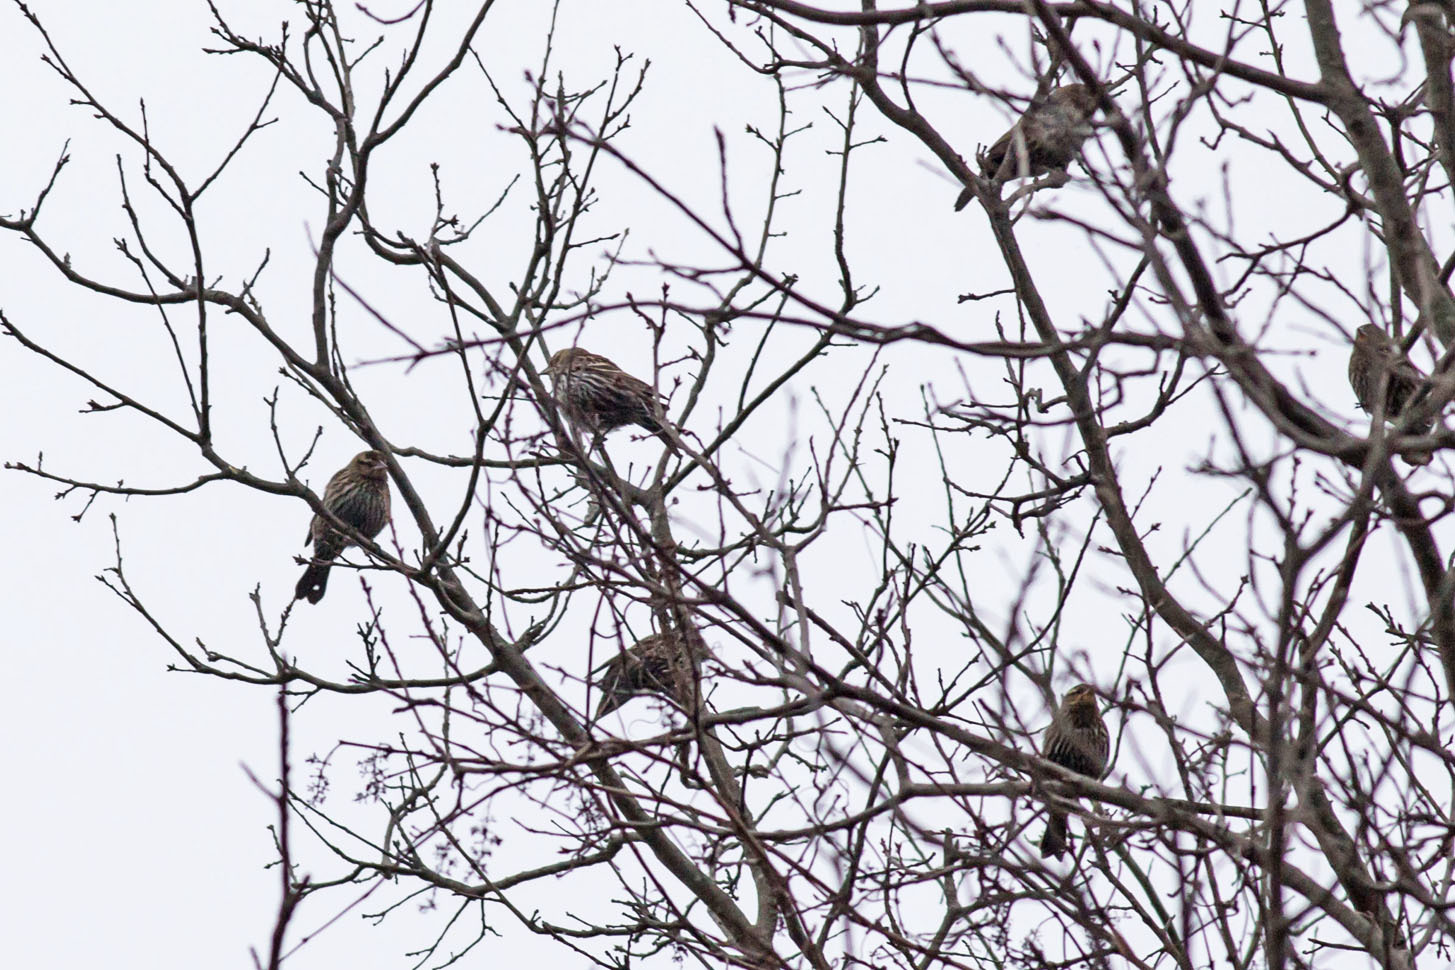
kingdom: Animalia
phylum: Chordata
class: Aves
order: Passeriformes
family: Icteridae
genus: Agelaius
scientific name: Agelaius phoeniceus
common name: Red-winged blackbird
